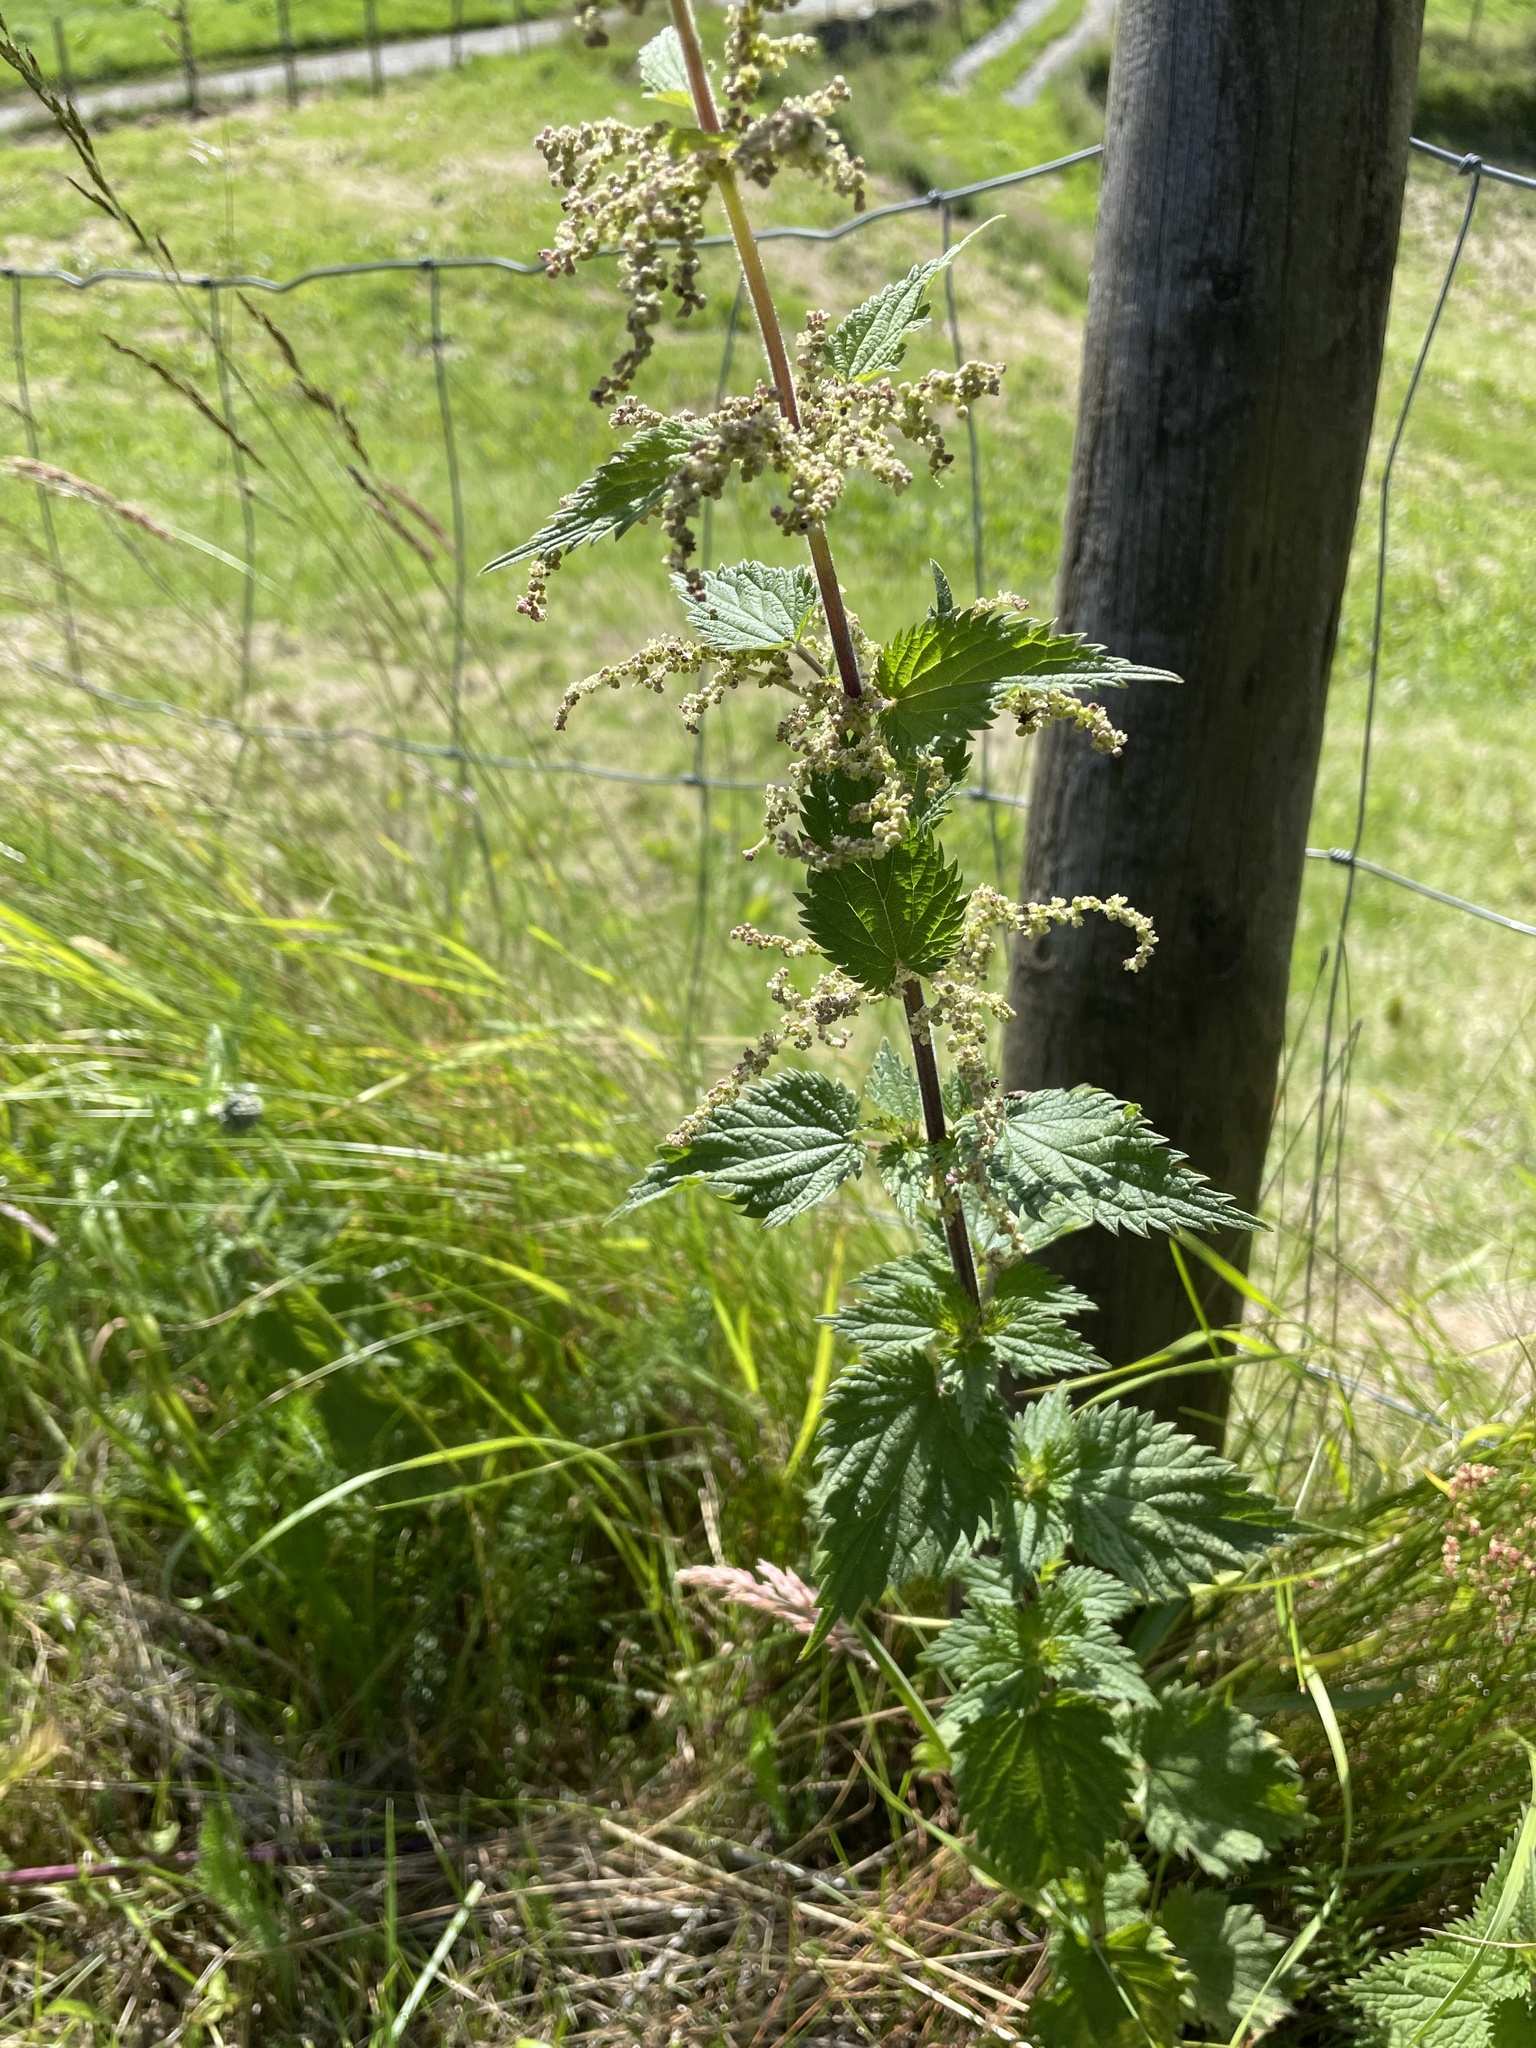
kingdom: Plantae
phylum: Tracheophyta
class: Magnoliopsida
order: Rosales
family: Urticaceae
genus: Urtica
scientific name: Urtica dioica
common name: Common nettle
